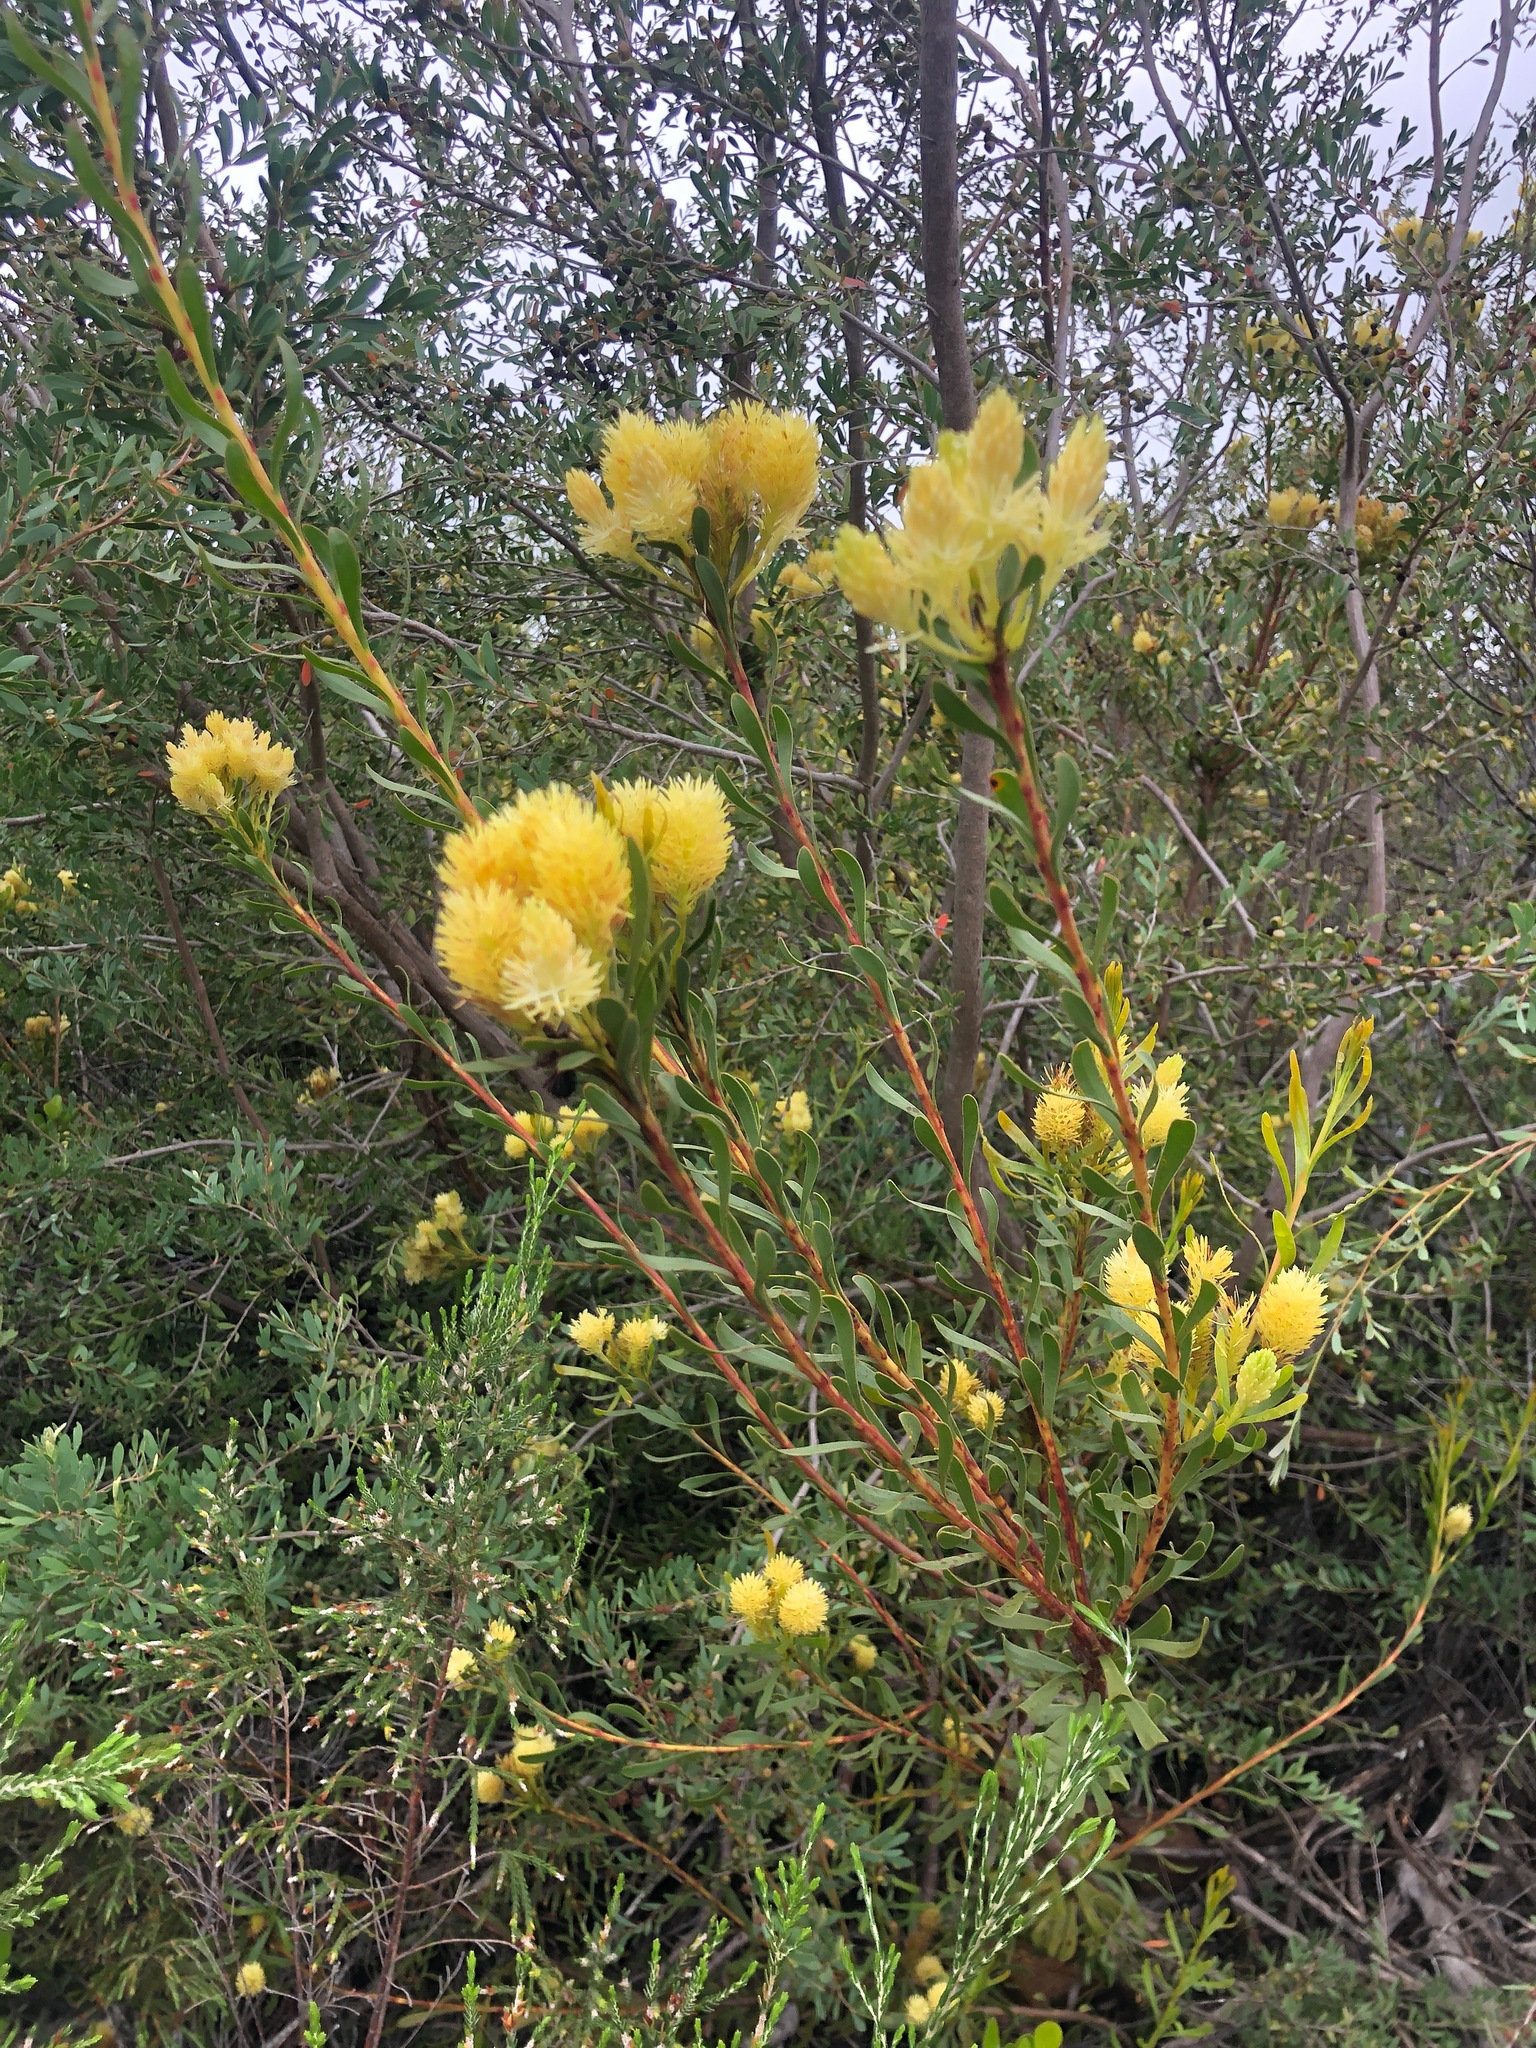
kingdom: Plantae
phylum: Tracheophyta
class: Magnoliopsida
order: Proteales
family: Proteaceae
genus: Aulax
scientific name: Aulax umbellata
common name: Broad-leaf featherbush
